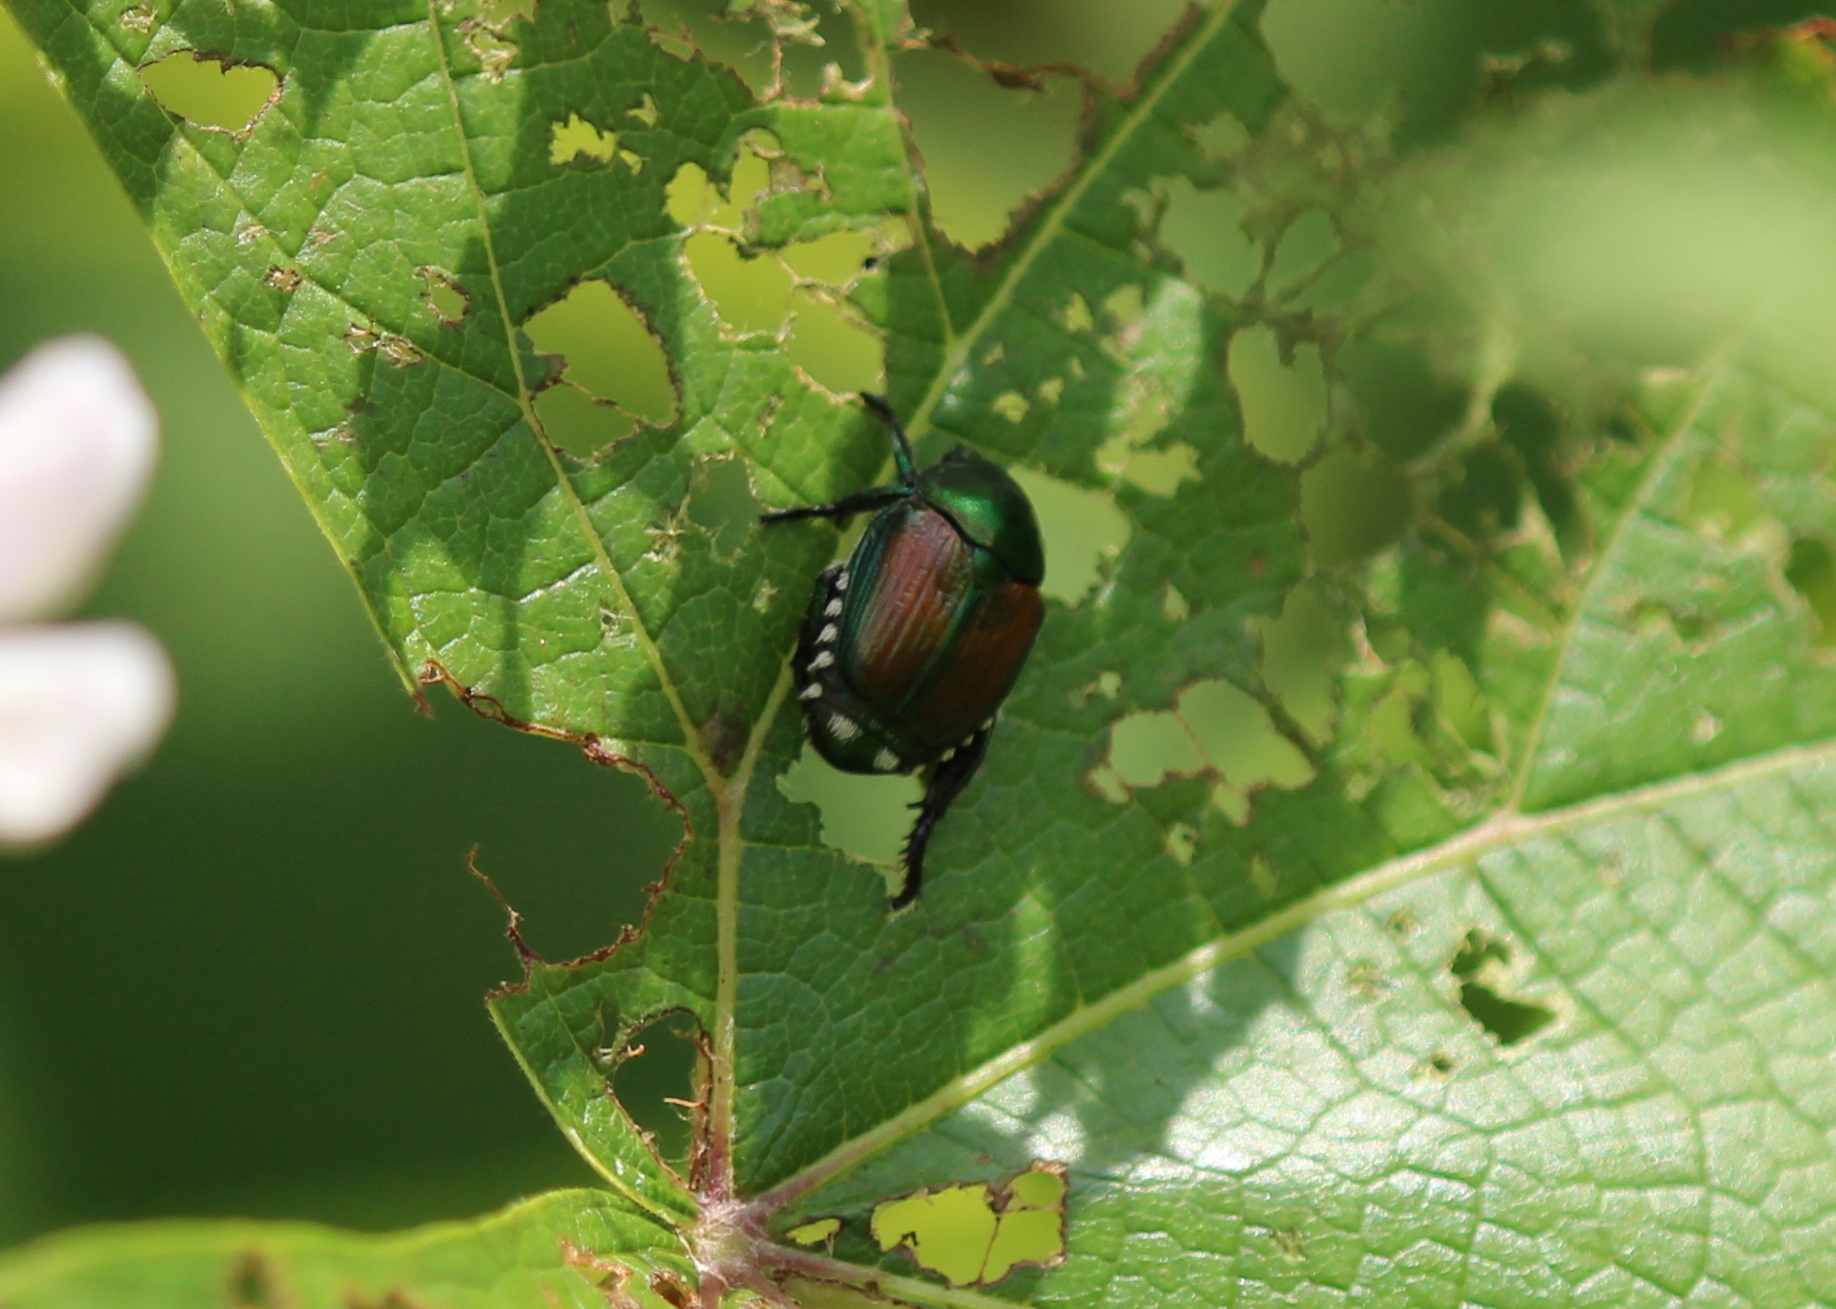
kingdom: Animalia
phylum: Arthropoda
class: Insecta
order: Coleoptera
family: Scarabaeidae
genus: Popillia
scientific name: Popillia japonica
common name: Japanese beetle
